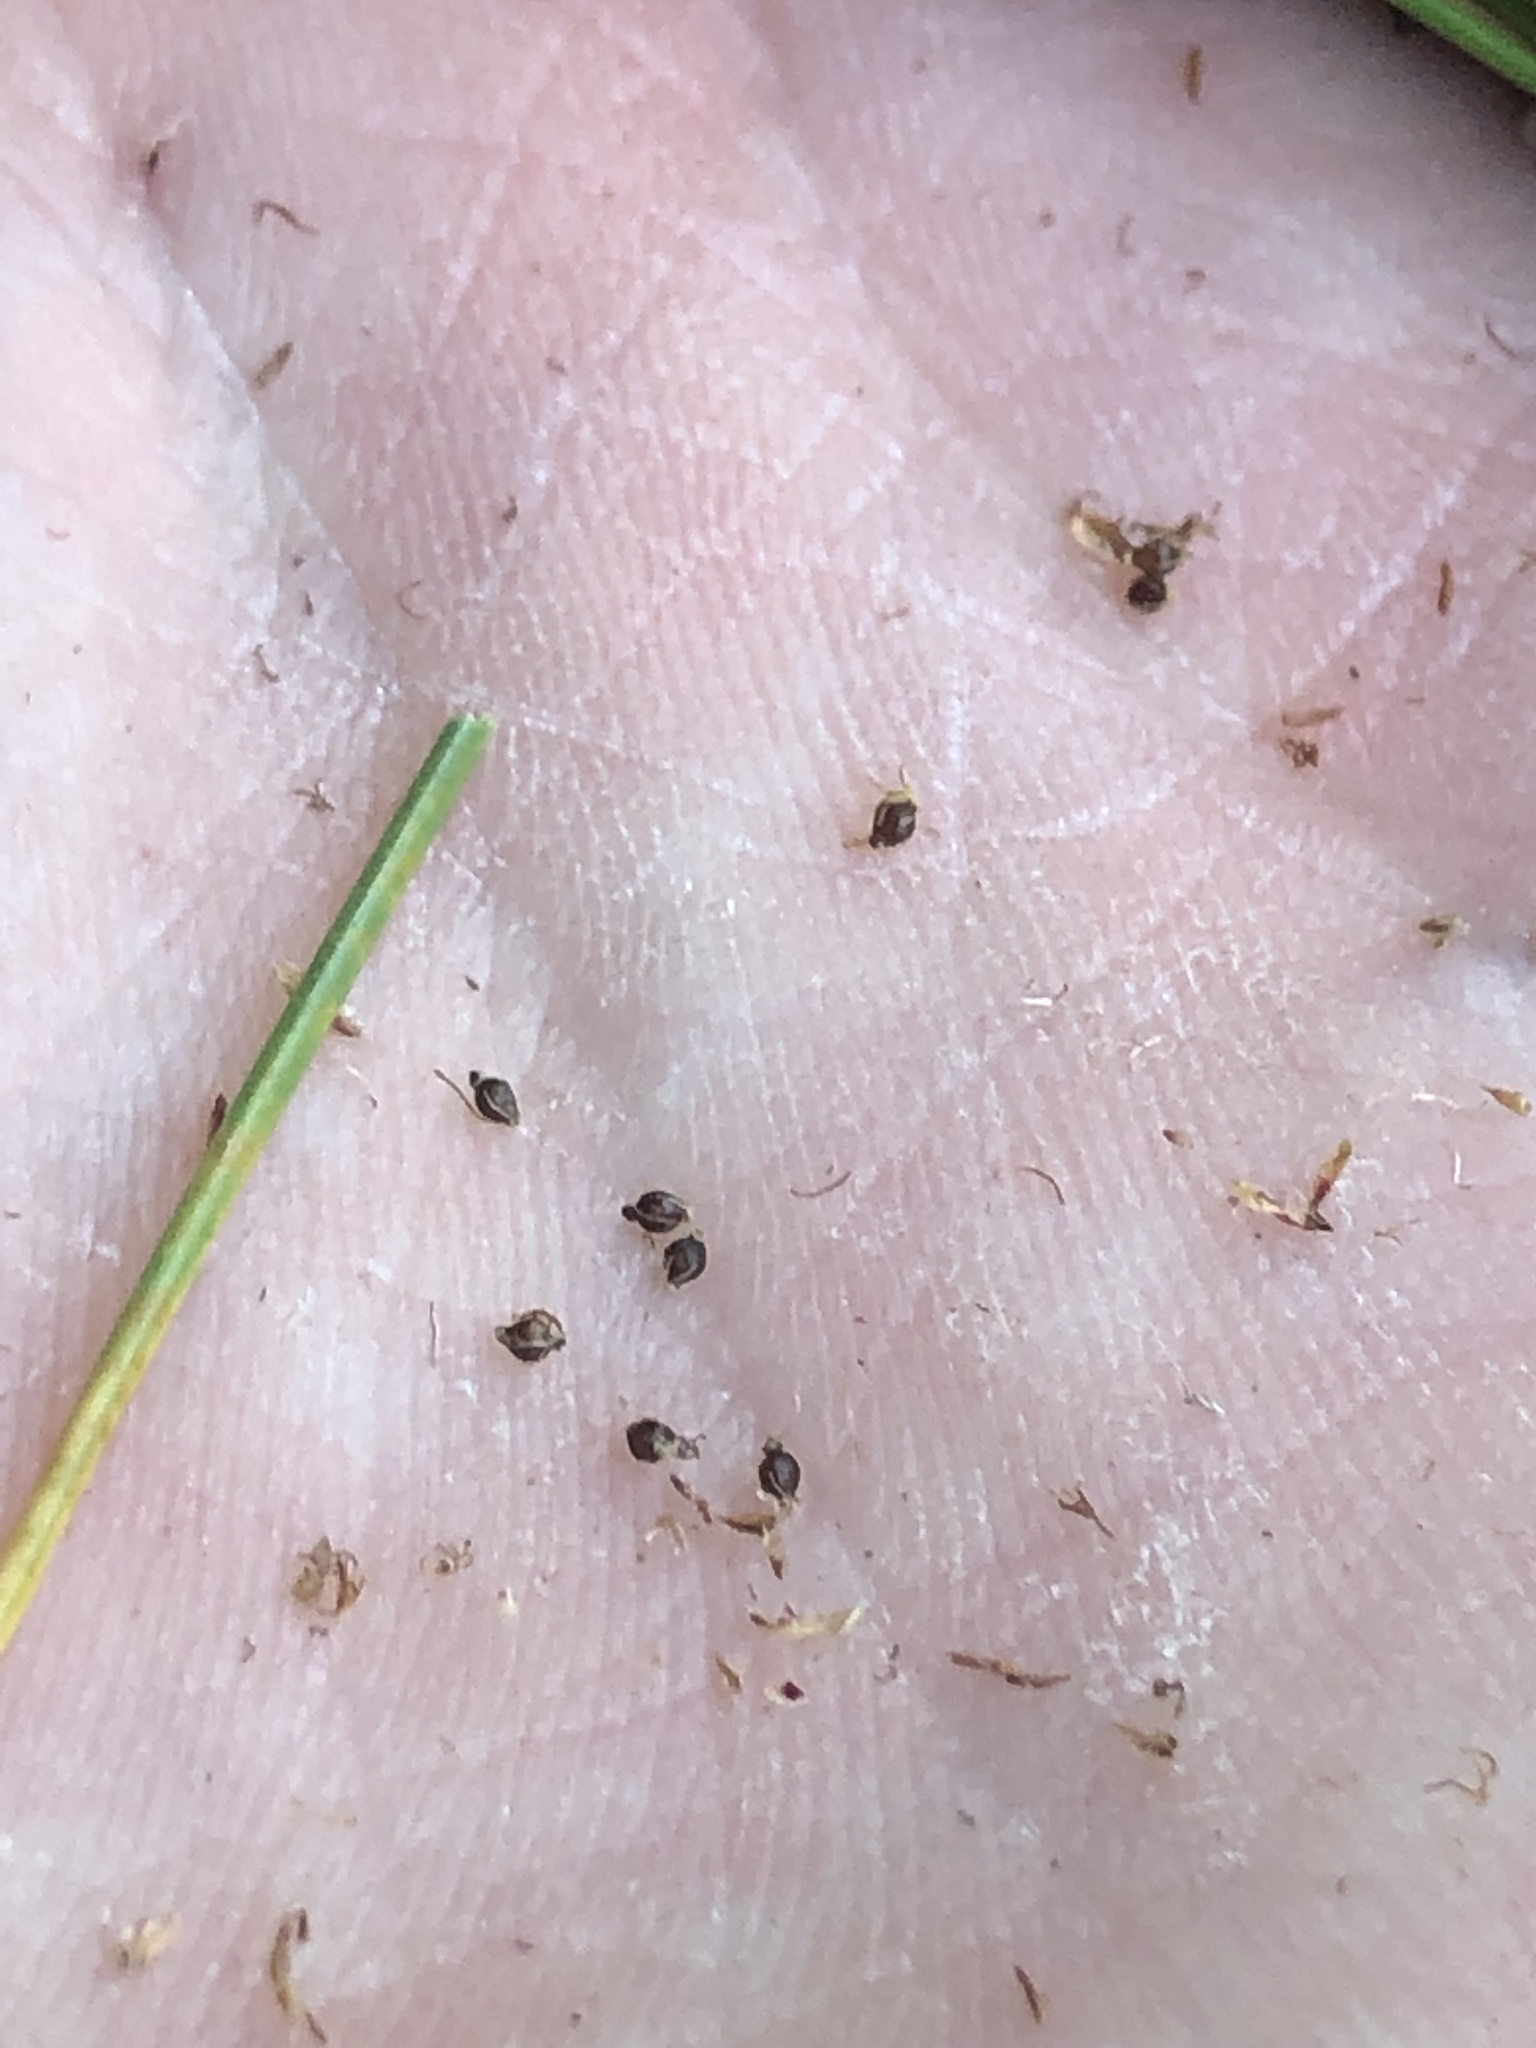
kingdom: Plantae
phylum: Tracheophyta
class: Liliopsida
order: Poales
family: Cyperaceae
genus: Eleocharis
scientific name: Eleocharis montevidensis
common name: Sand spike-rush
